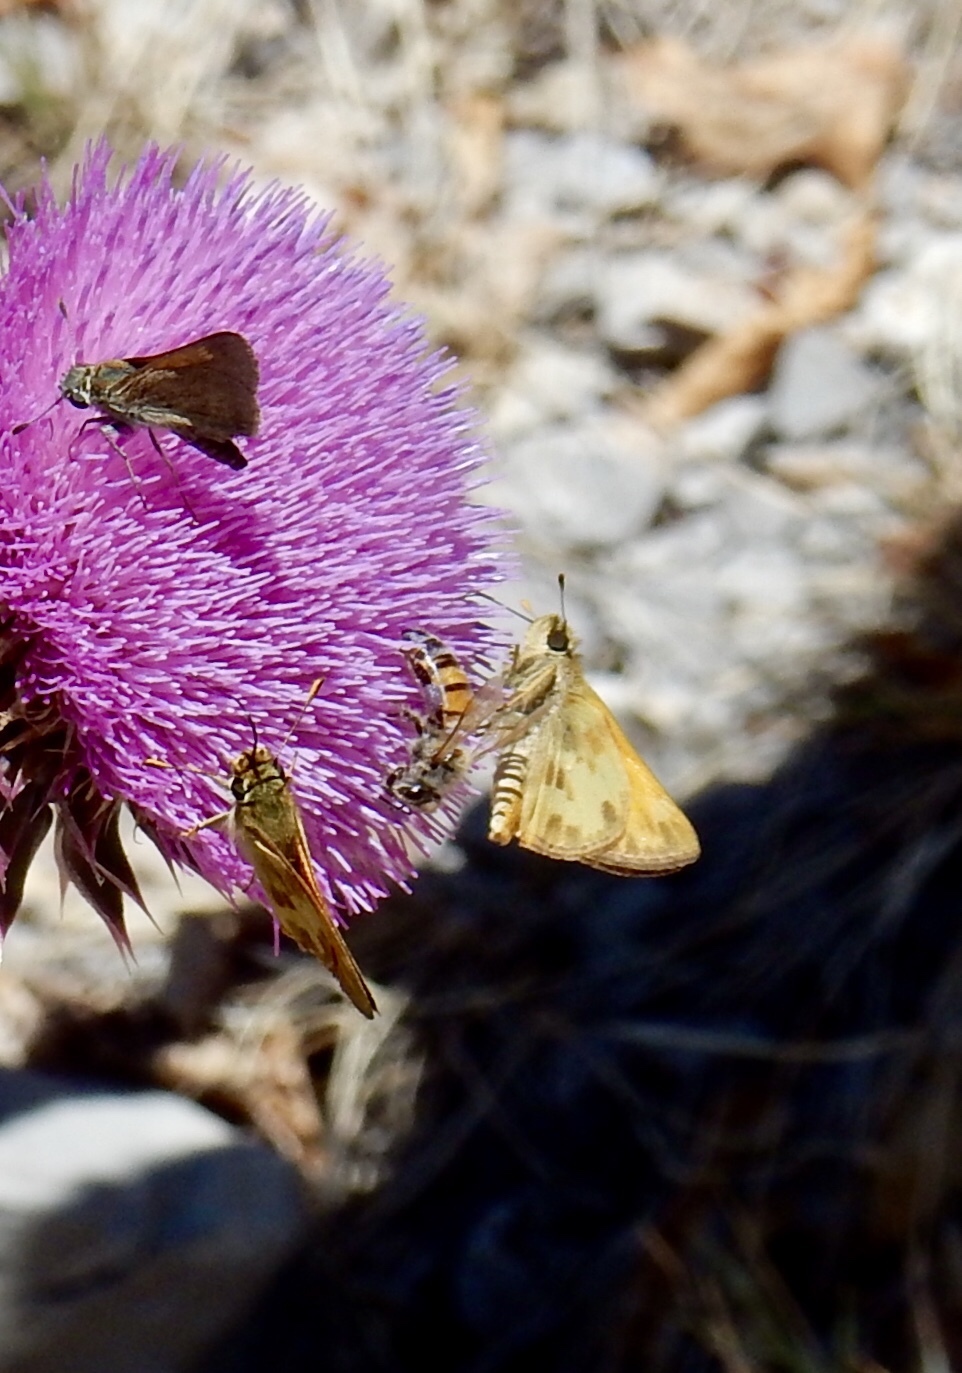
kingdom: Animalia
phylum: Arthropoda
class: Insecta
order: Lepidoptera
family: Hesperiidae
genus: Lon
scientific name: Lon taxiles
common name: Taxiles skipper
